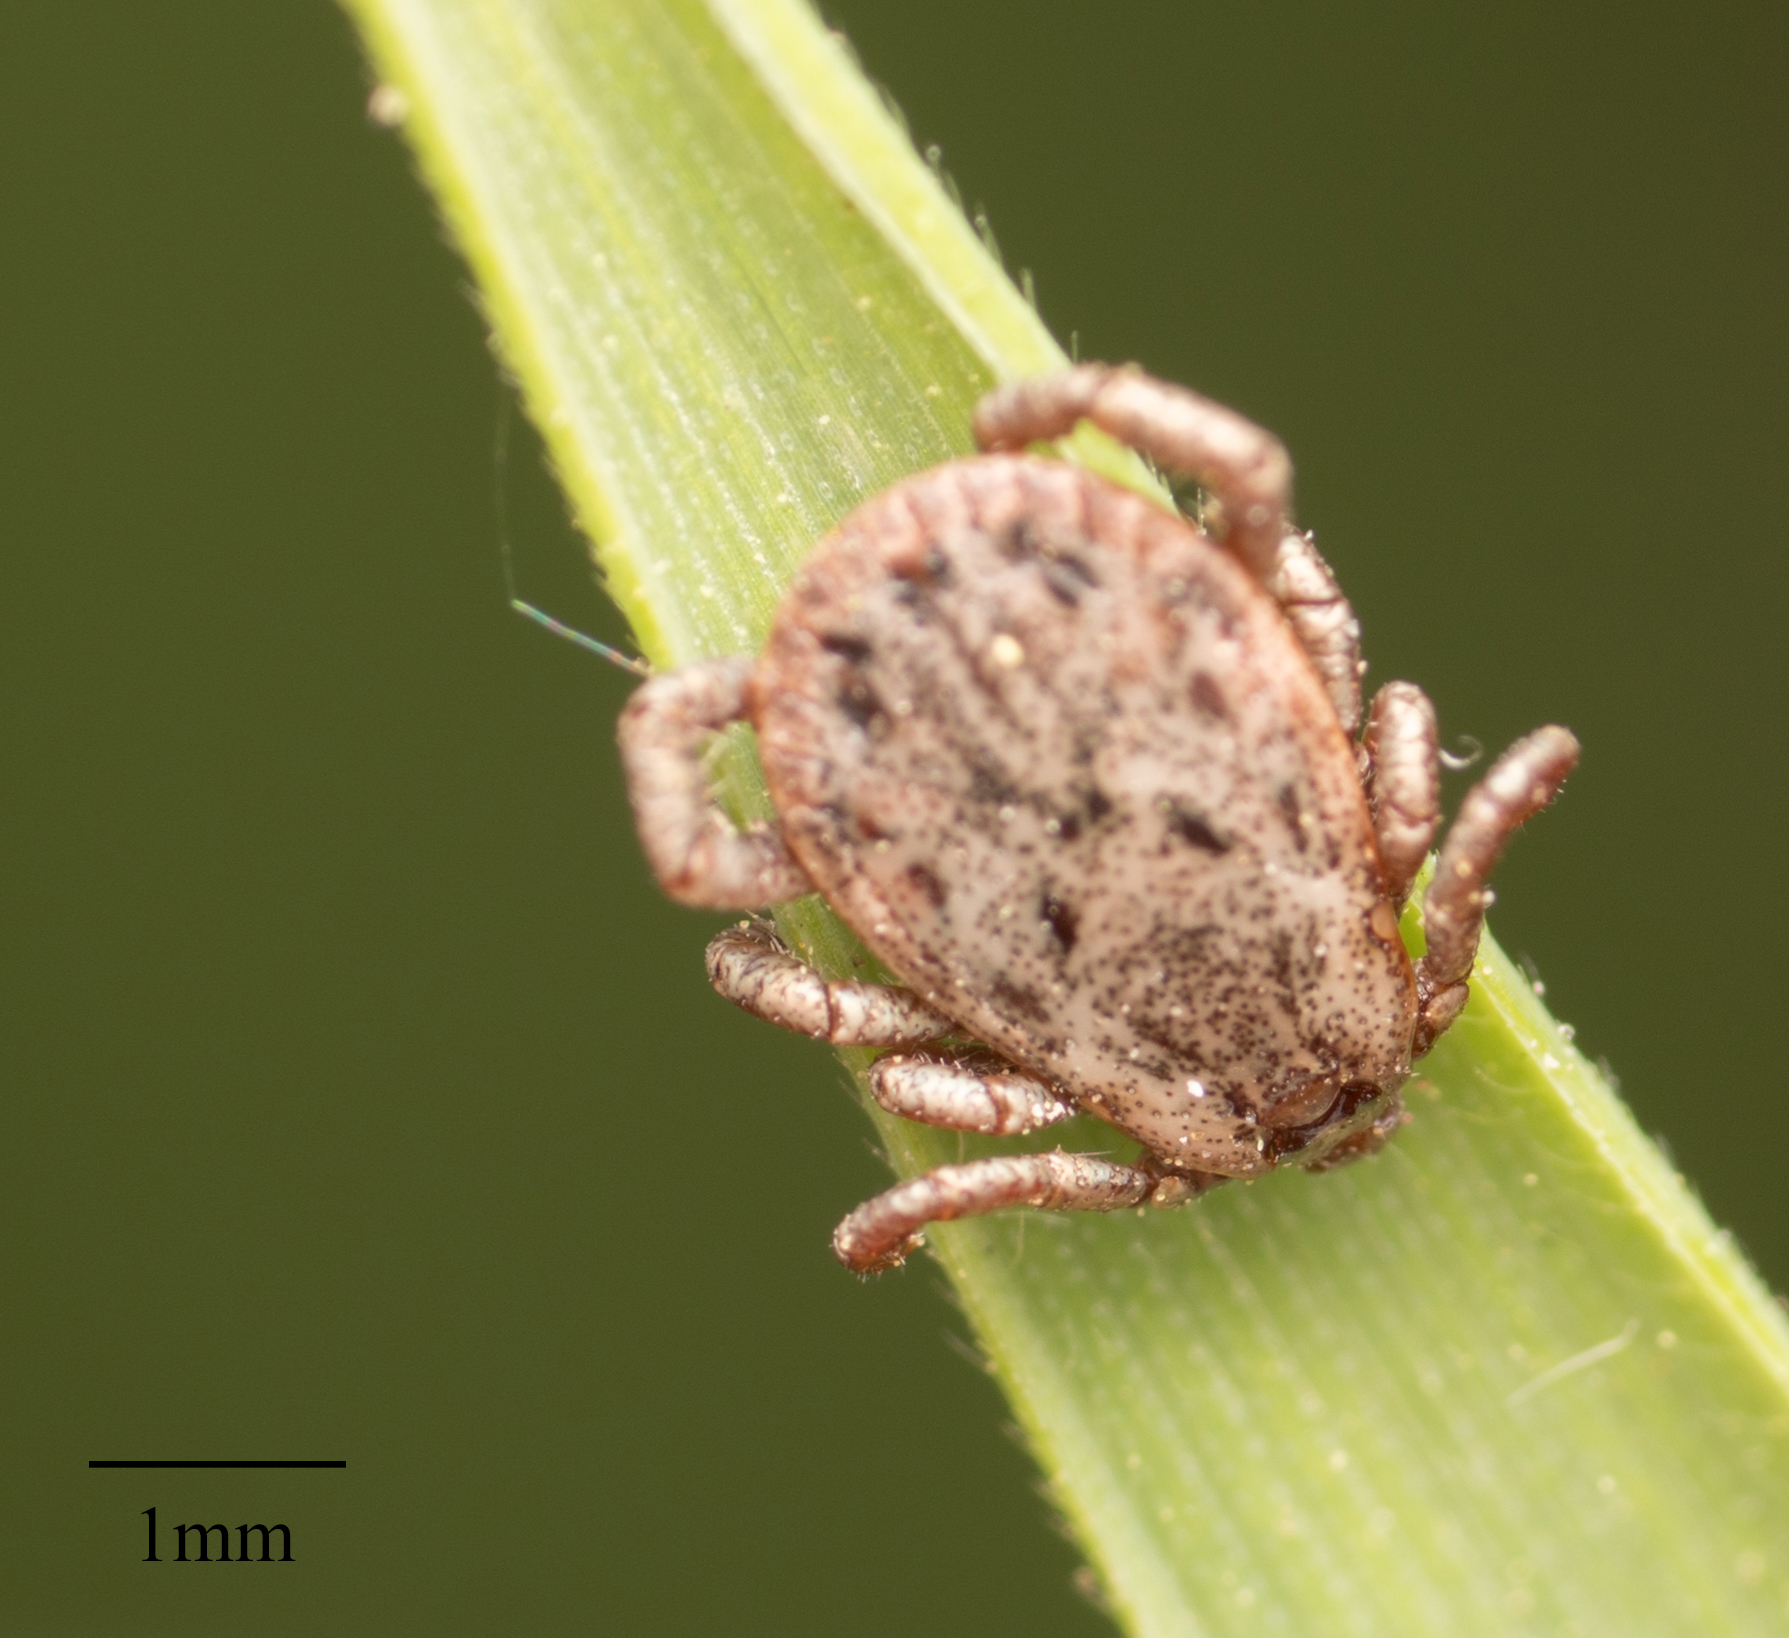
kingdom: Animalia
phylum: Arthropoda
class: Arachnida
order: Ixodida
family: Ixodidae
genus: Dermacentor
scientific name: Dermacentor occidentalis
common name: Net tick
